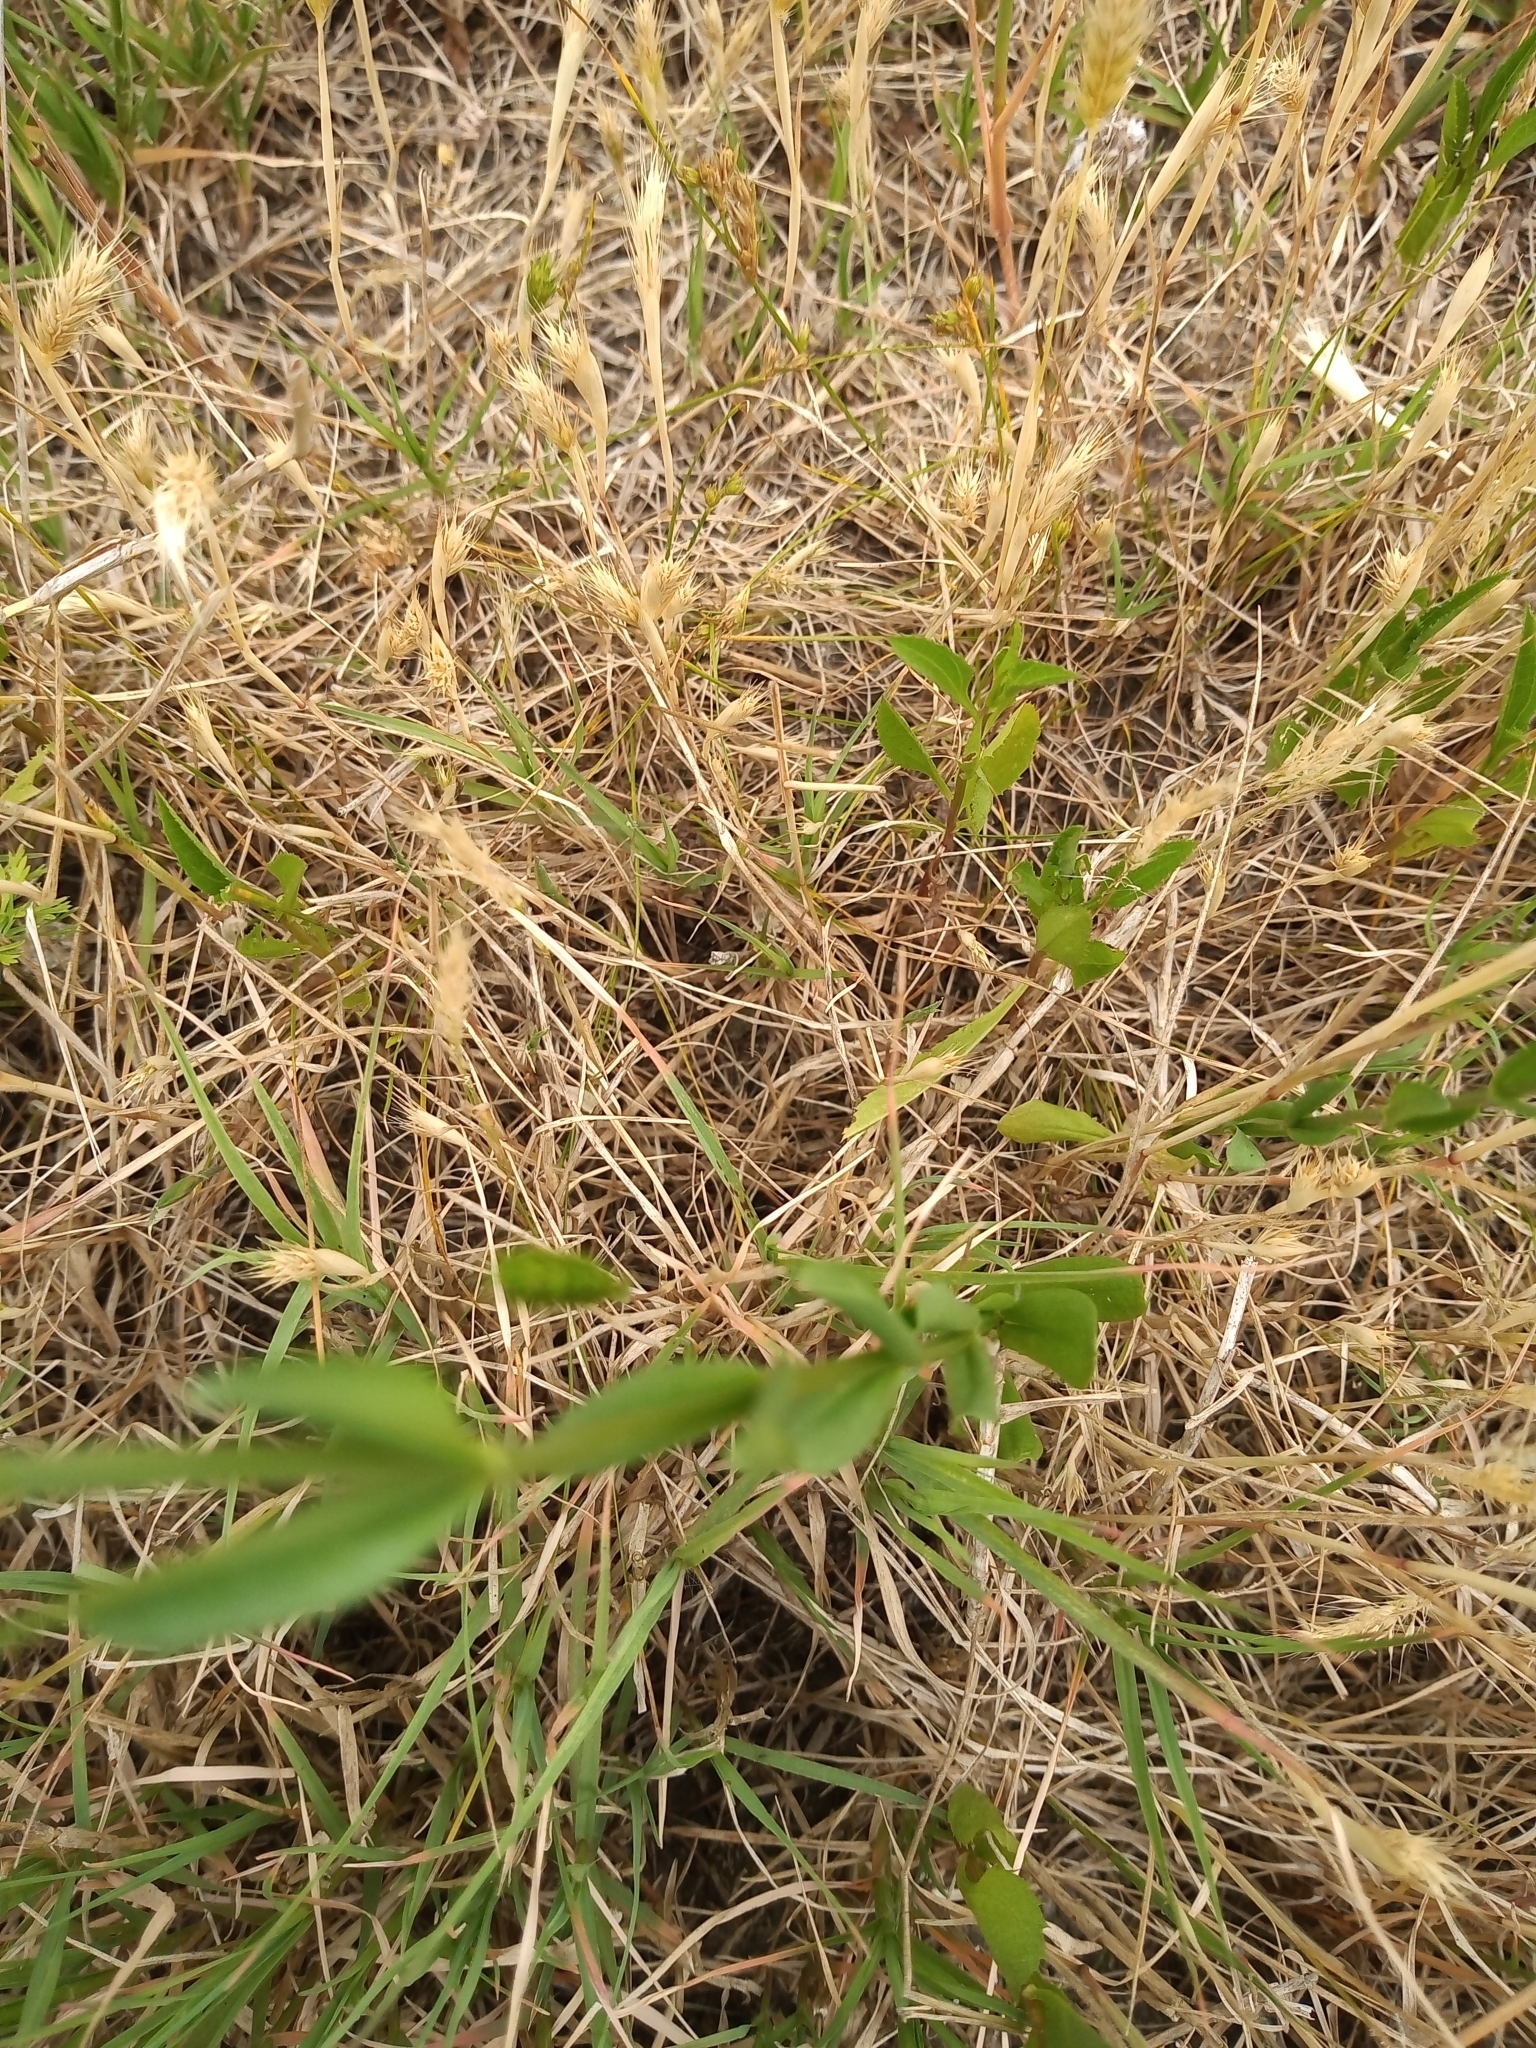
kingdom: Plantae
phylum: Tracheophyta
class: Magnoliopsida
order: Gentianales
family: Gentianaceae
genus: Centaurium
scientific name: Centaurium pulchellum
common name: Lesser centaury
